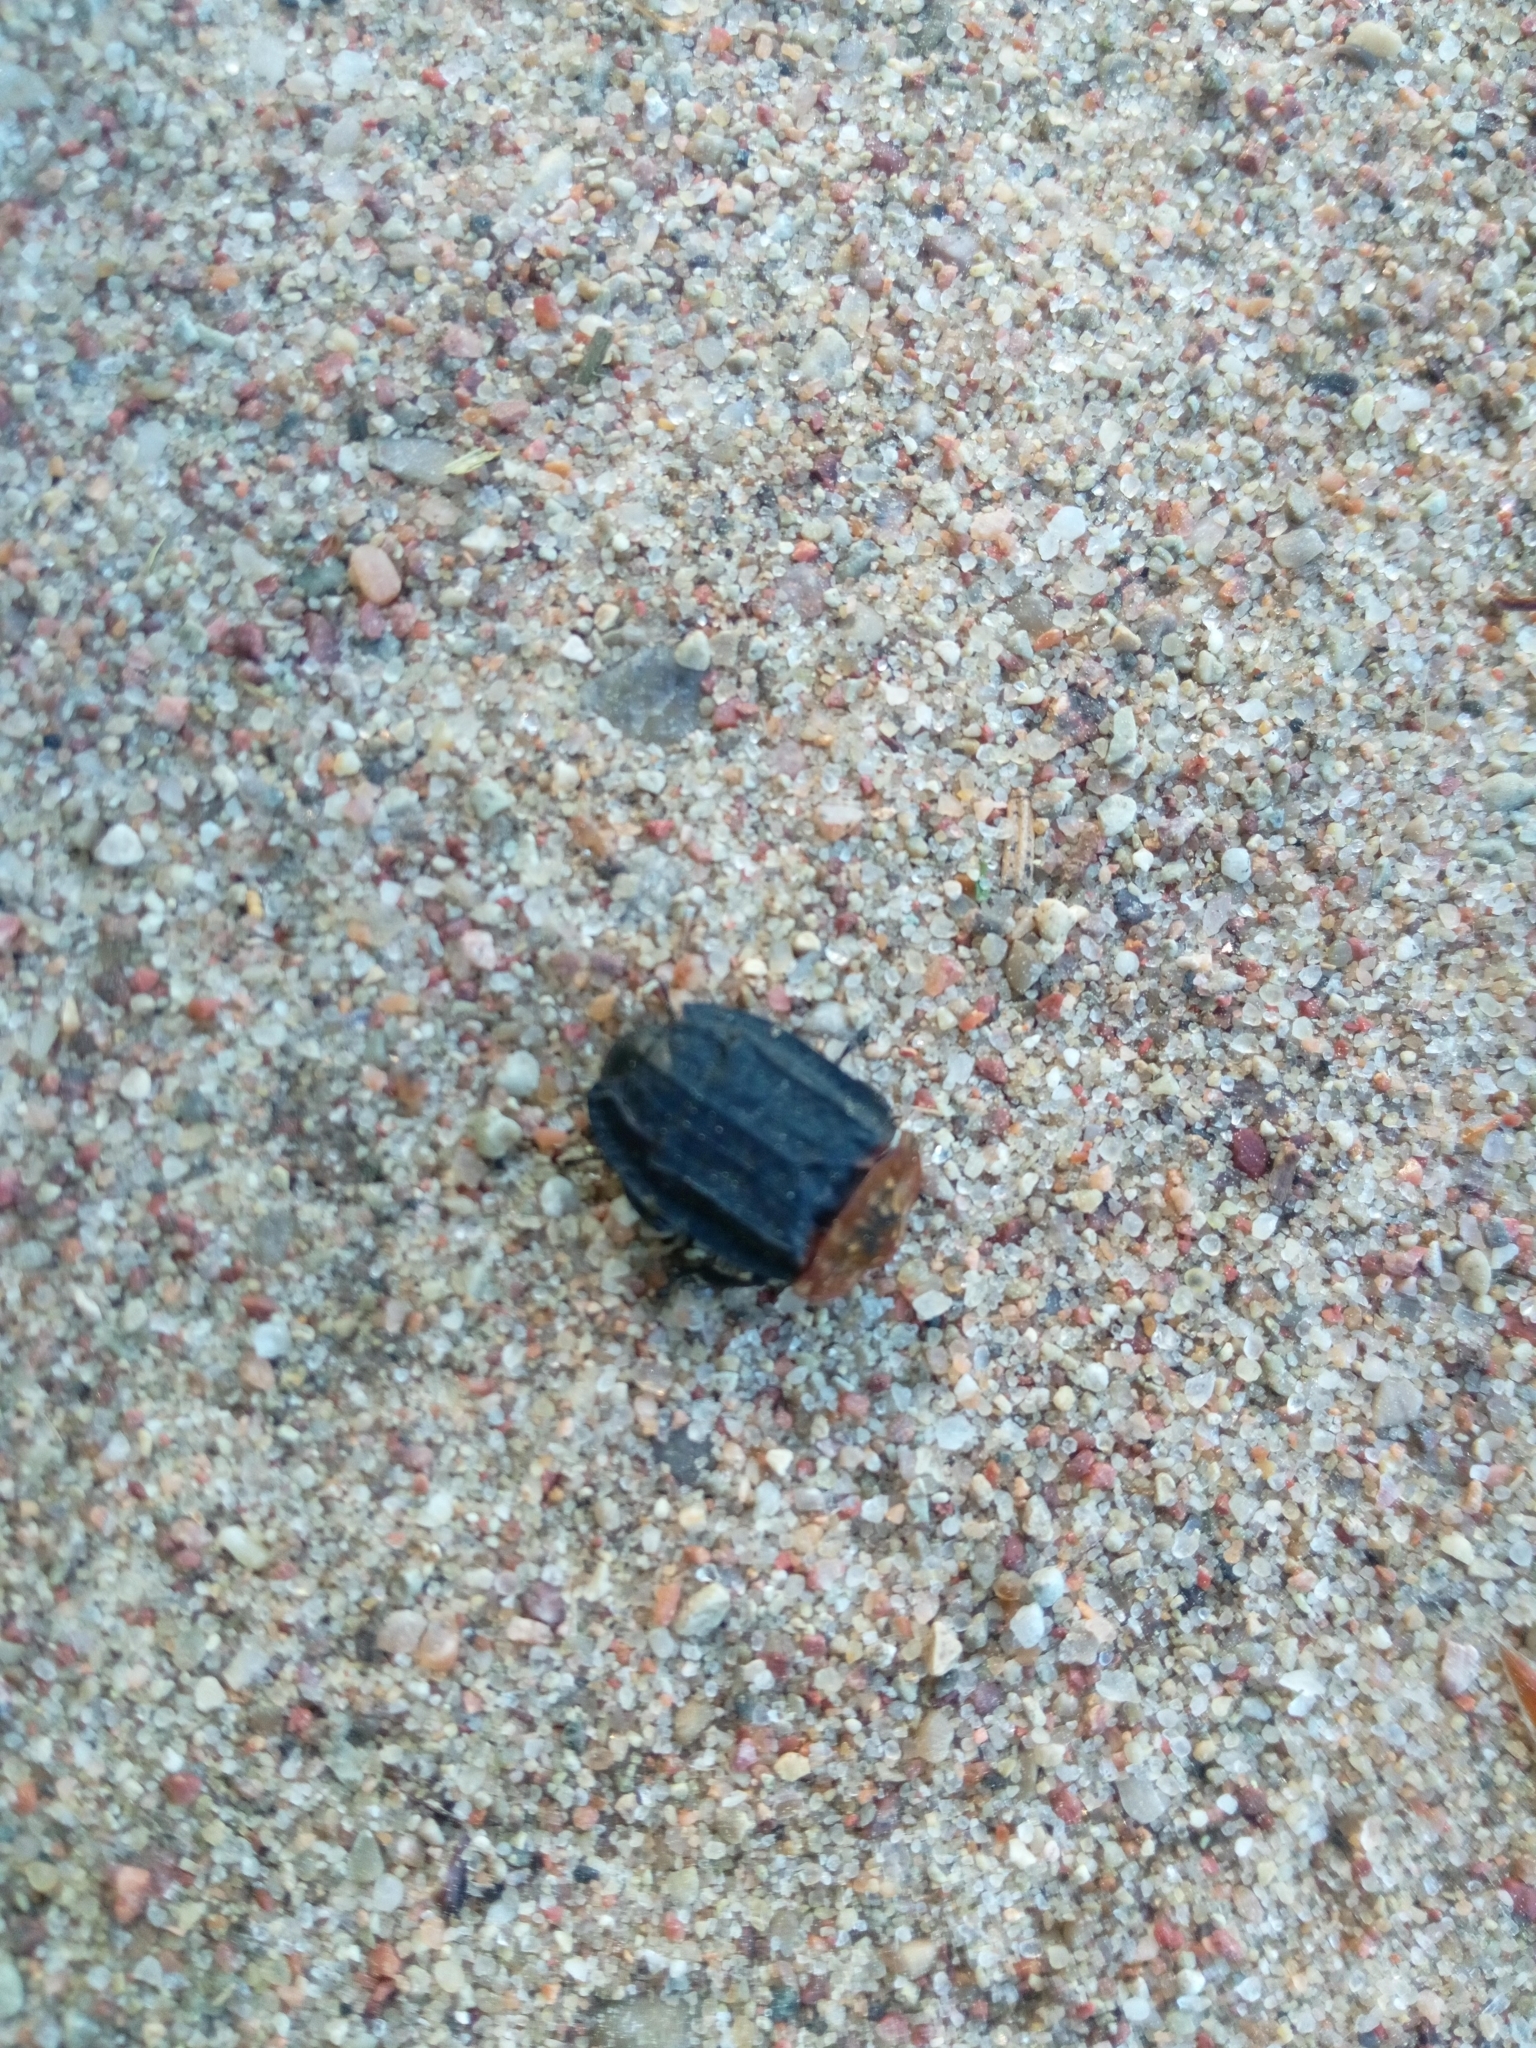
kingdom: Animalia
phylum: Arthropoda
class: Insecta
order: Coleoptera
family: Staphylinidae
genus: Oiceoptoma
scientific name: Oiceoptoma thoracicum
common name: Red-breasted carrion beetle
